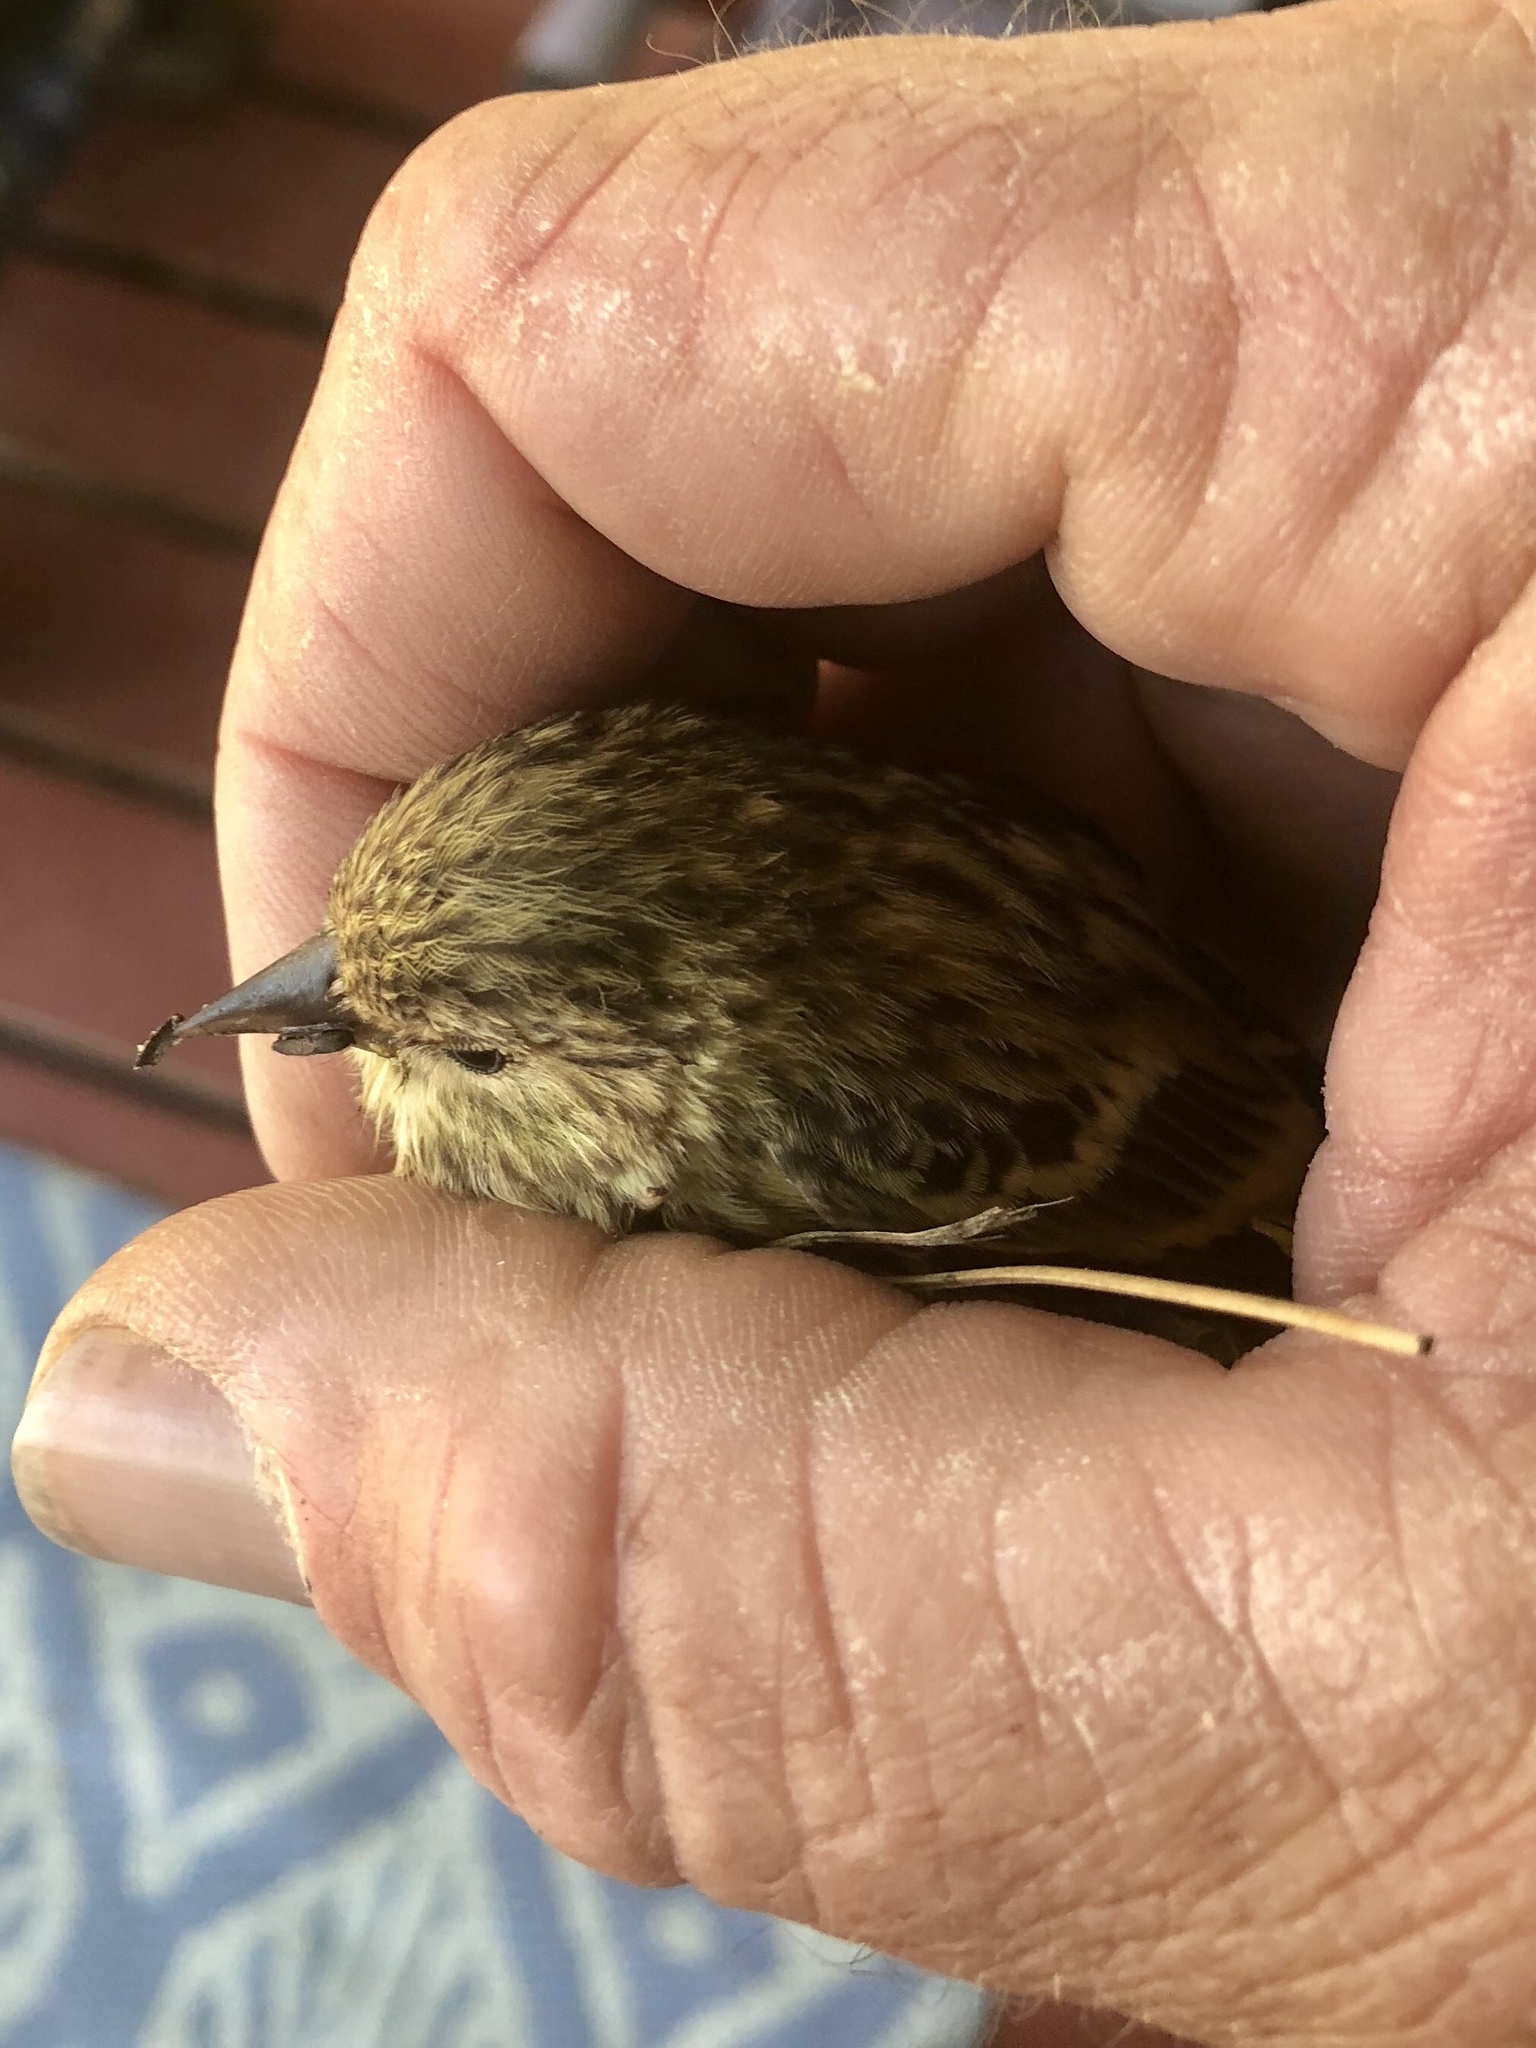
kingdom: Animalia
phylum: Chordata
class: Aves
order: Passeriformes
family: Fringillidae
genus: Spinus
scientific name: Spinus pinus
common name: Pine siskin
